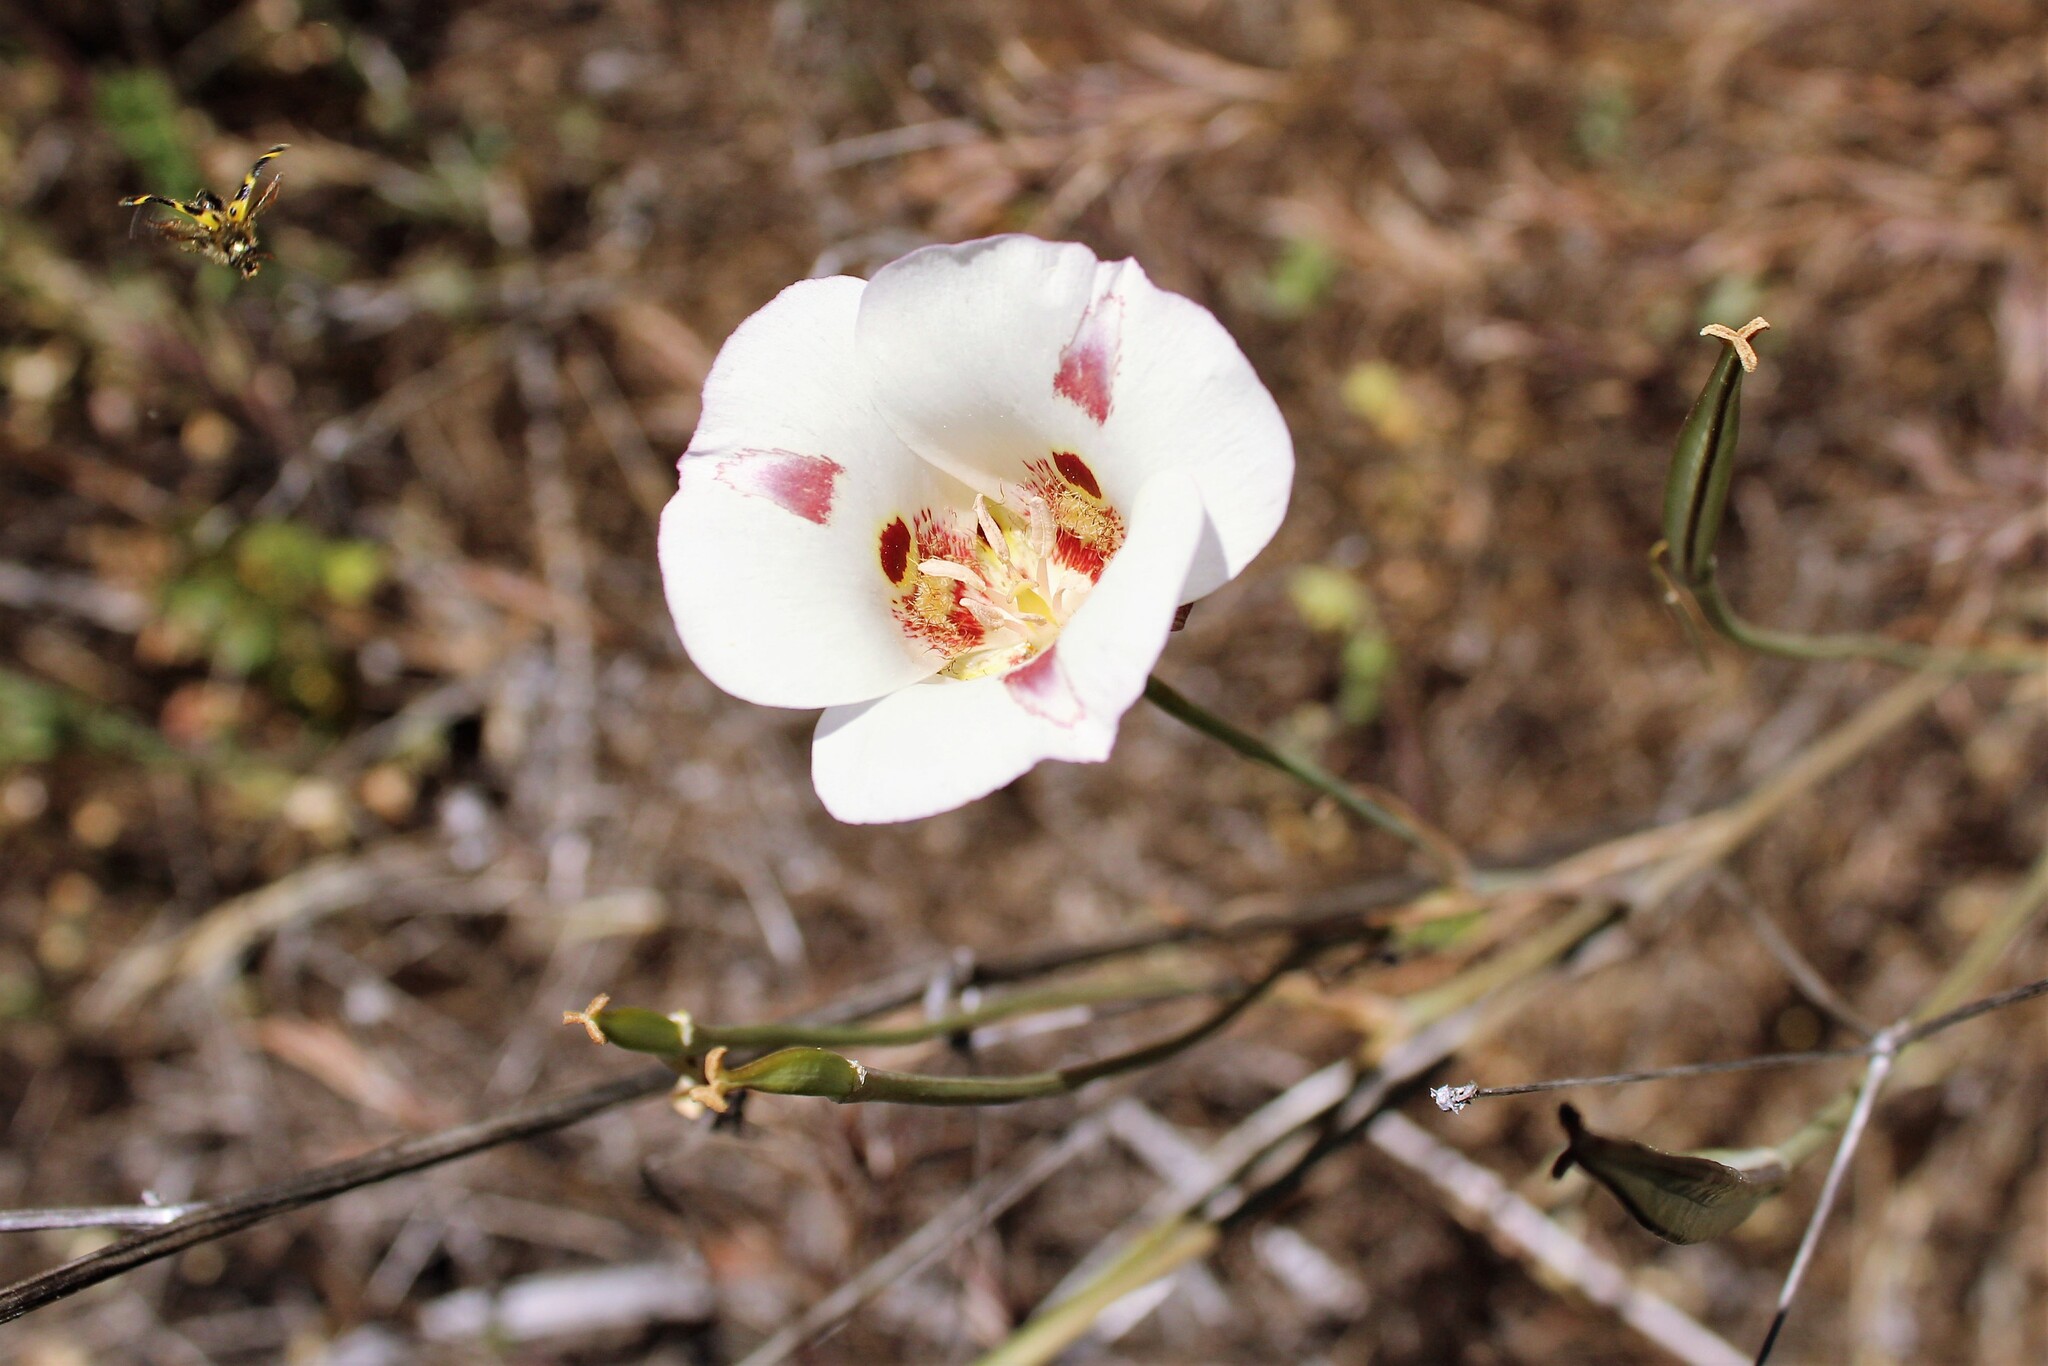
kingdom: Plantae
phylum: Tracheophyta
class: Liliopsida
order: Liliales
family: Liliaceae
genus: Calochortus
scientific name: Calochortus venustus
